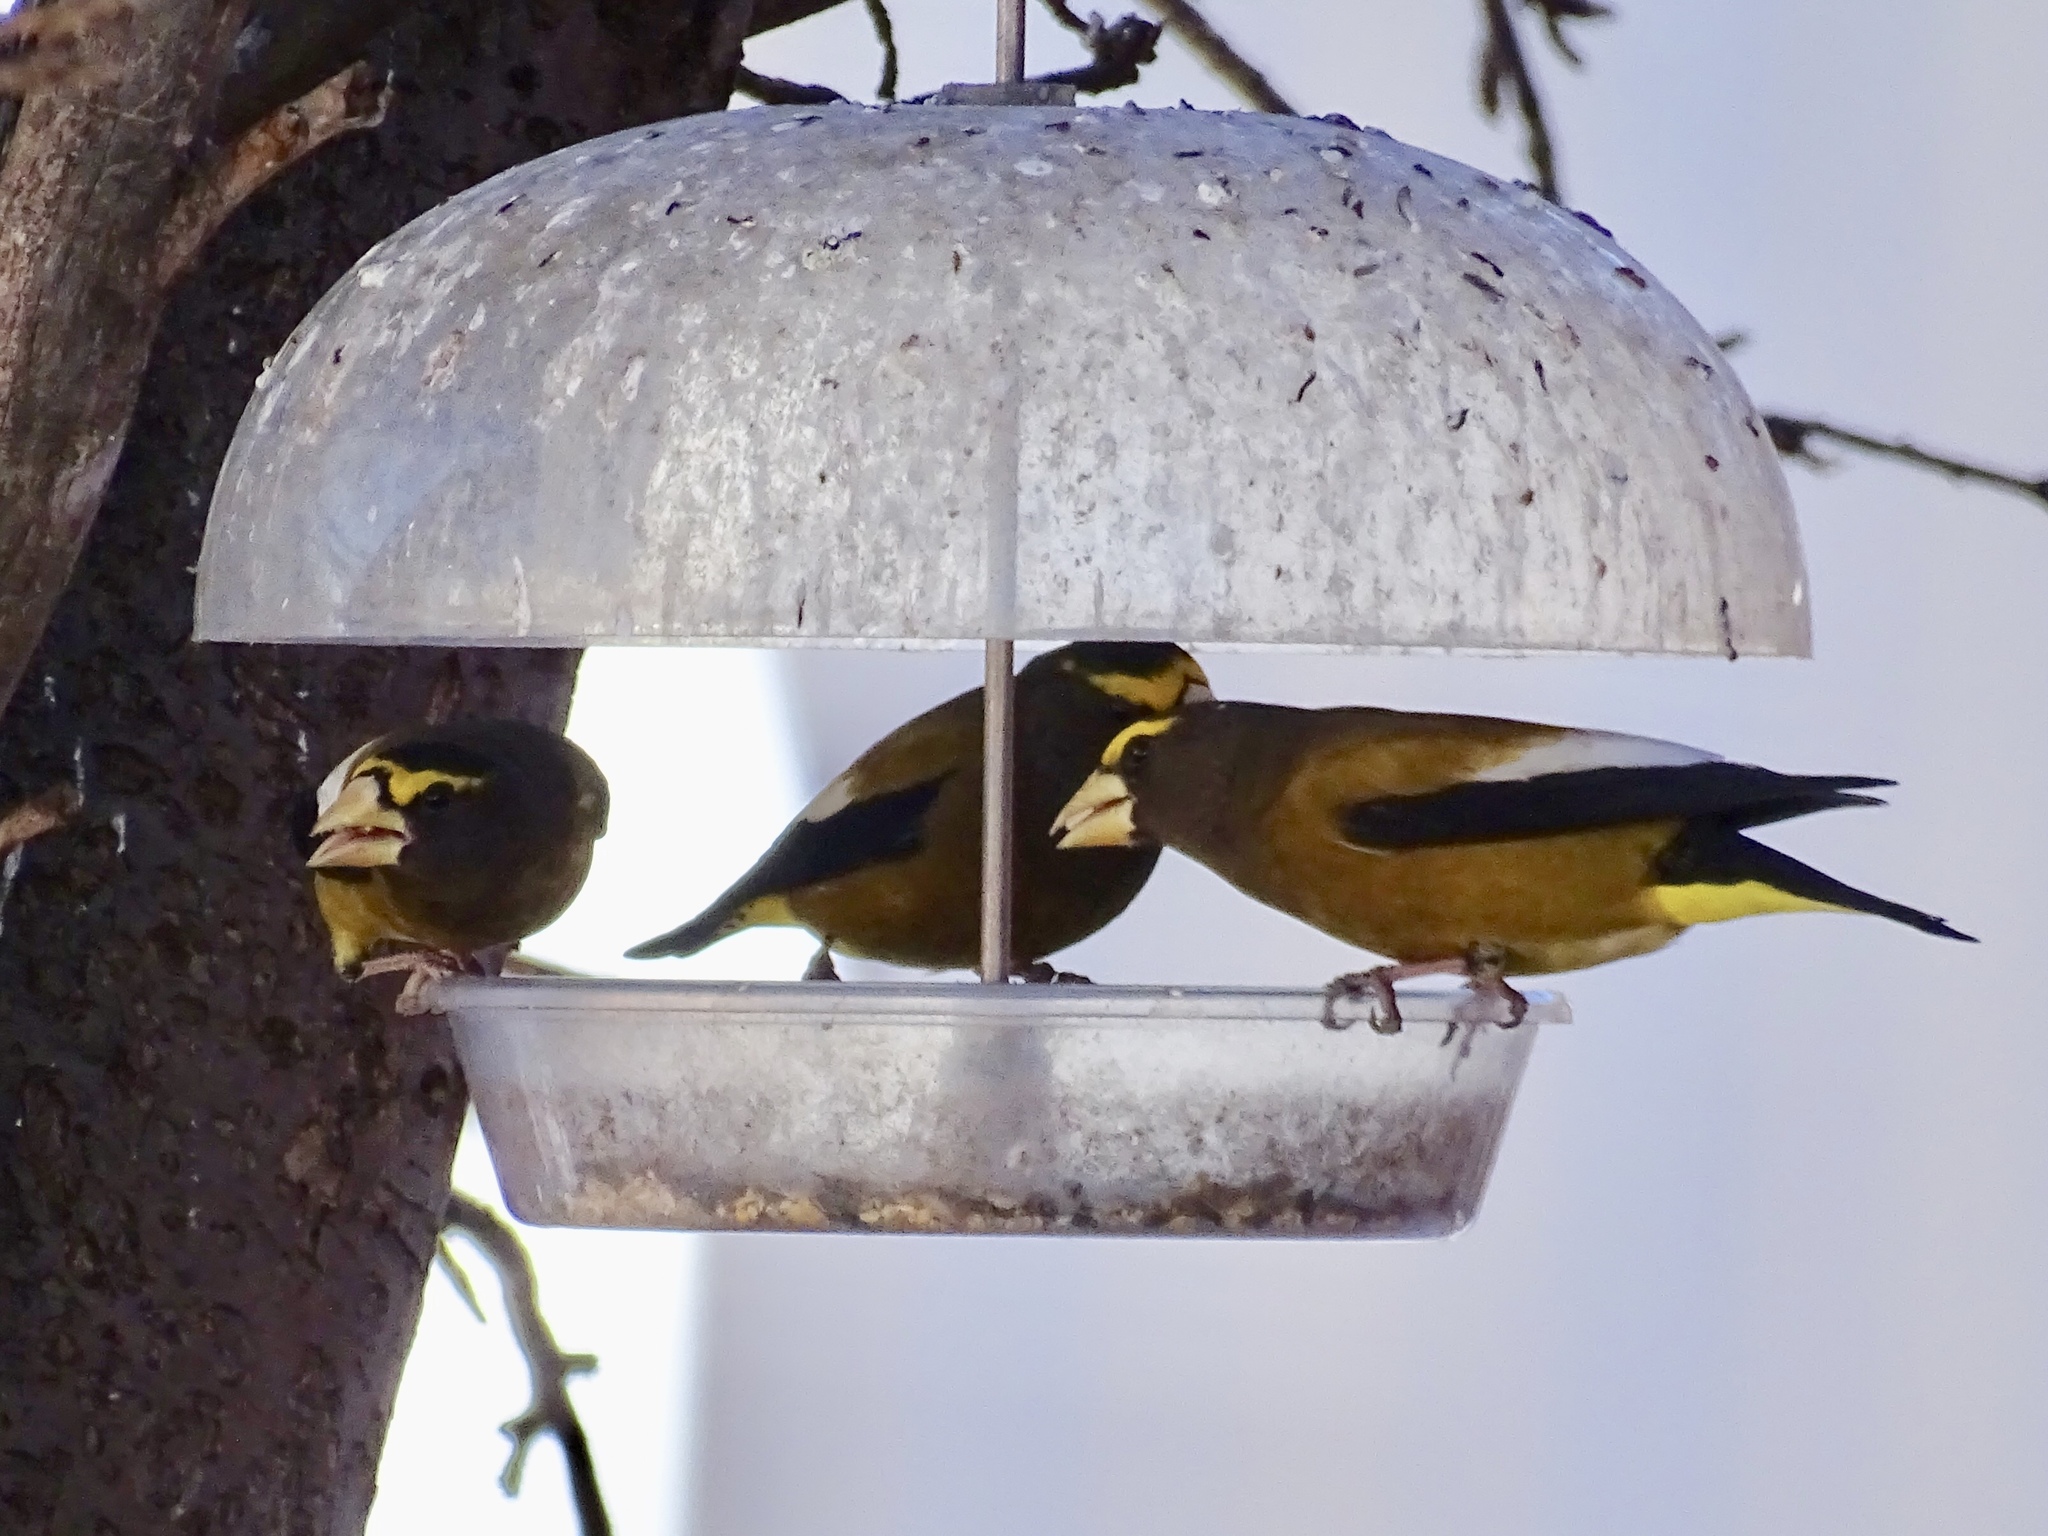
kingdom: Animalia
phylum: Chordata
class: Aves
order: Passeriformes
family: Fringillidae
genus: Hesperiphona
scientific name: Hesperiphona vespertina
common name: Evening grosbeak
